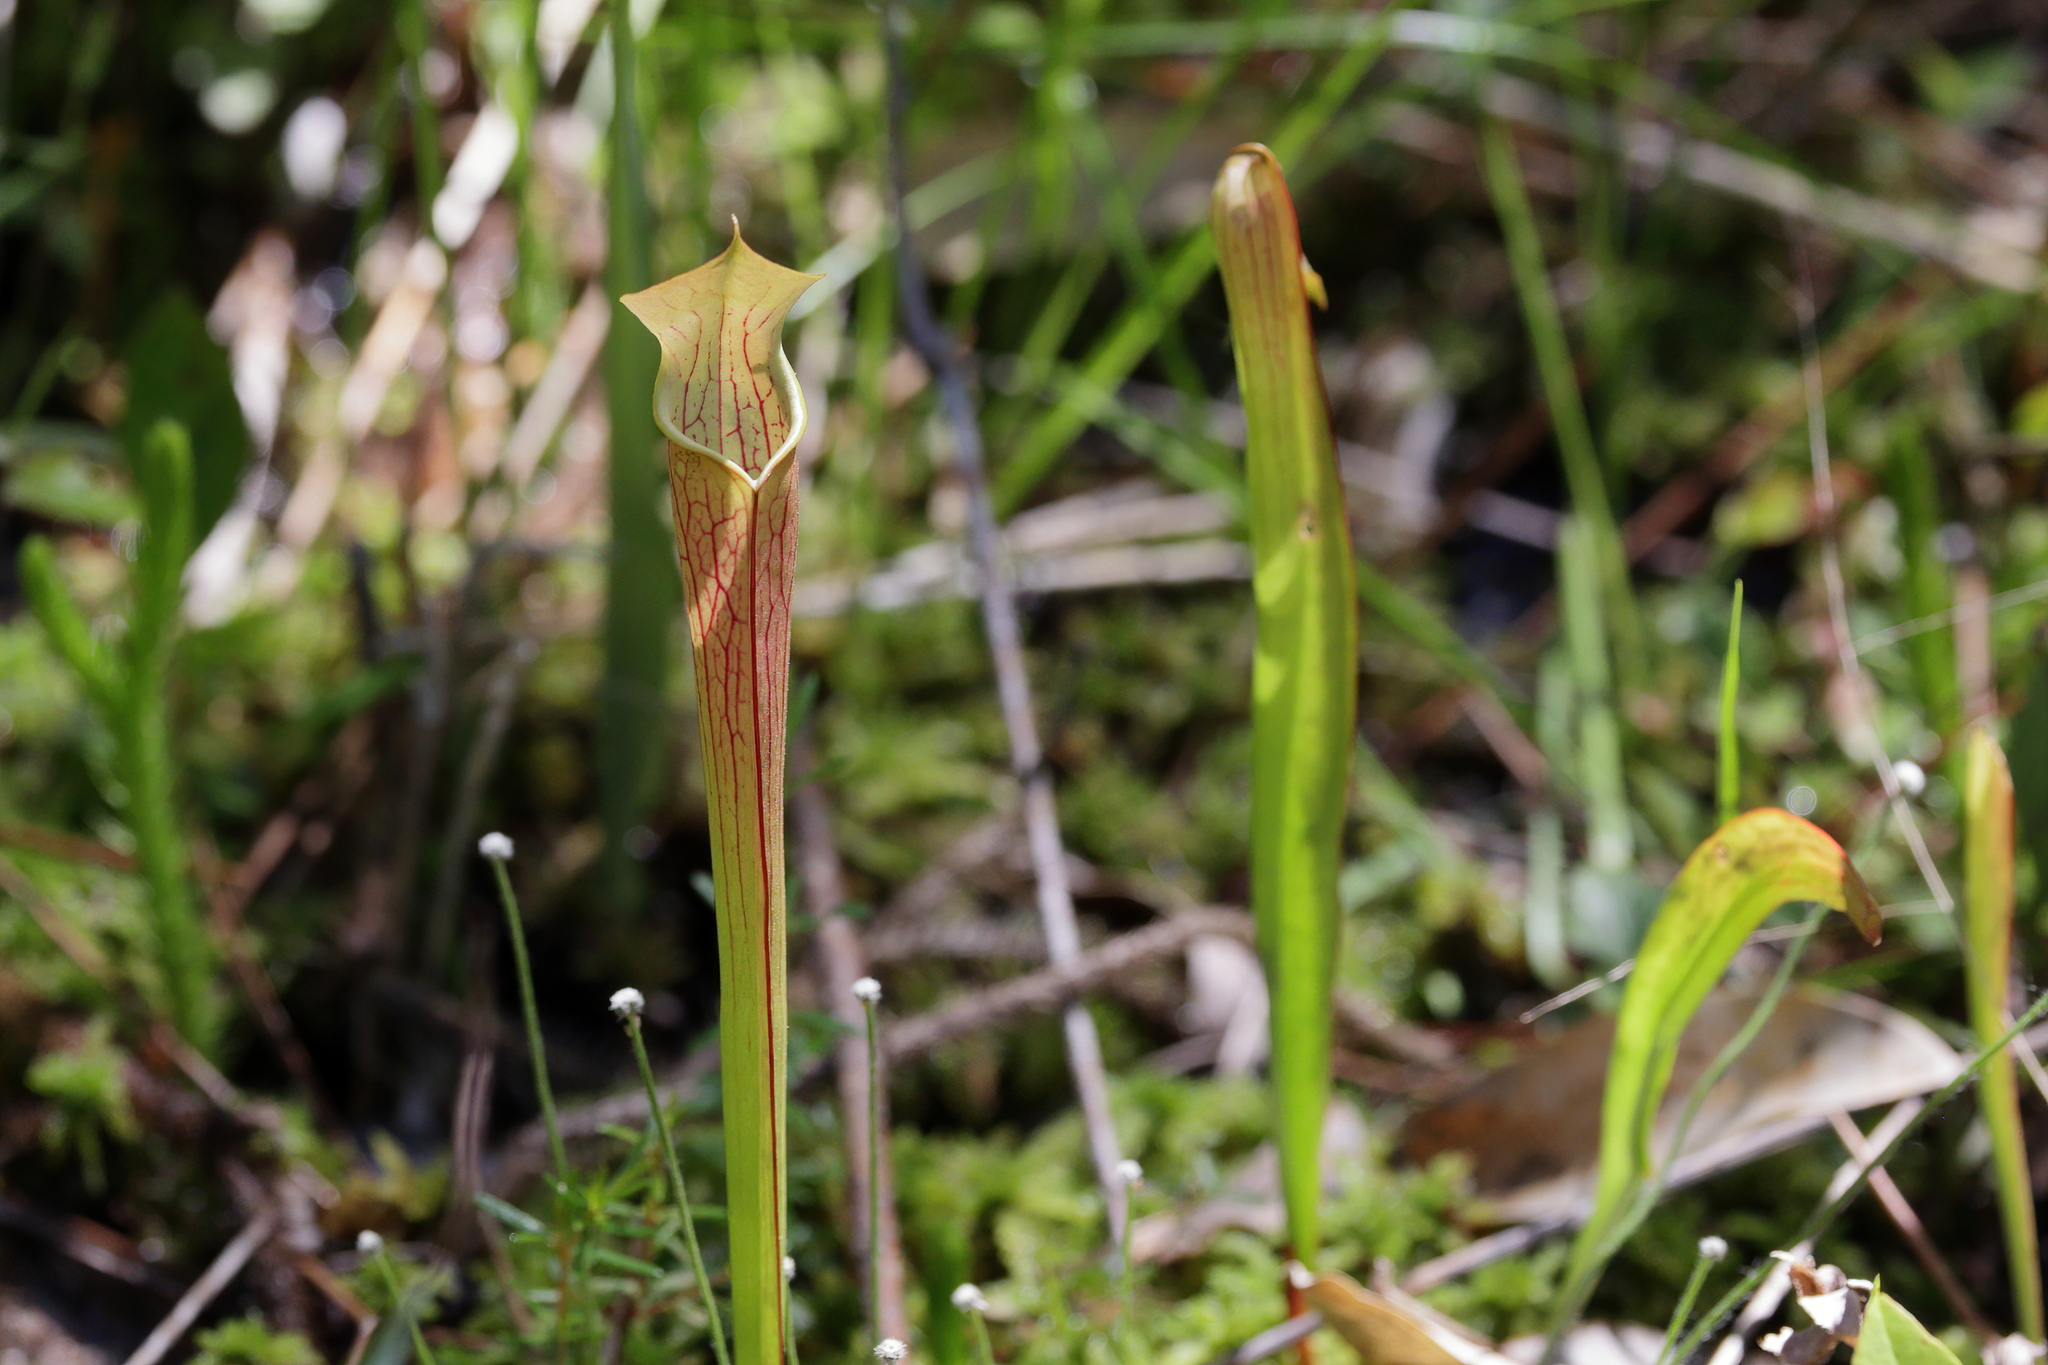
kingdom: Plantae
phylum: Tracheophyta
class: Magnoliopsida
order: Ericales
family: Sarraceniaceae
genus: Sarracenia
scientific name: Sarracenia rubra
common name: Sweet pitcherplant
